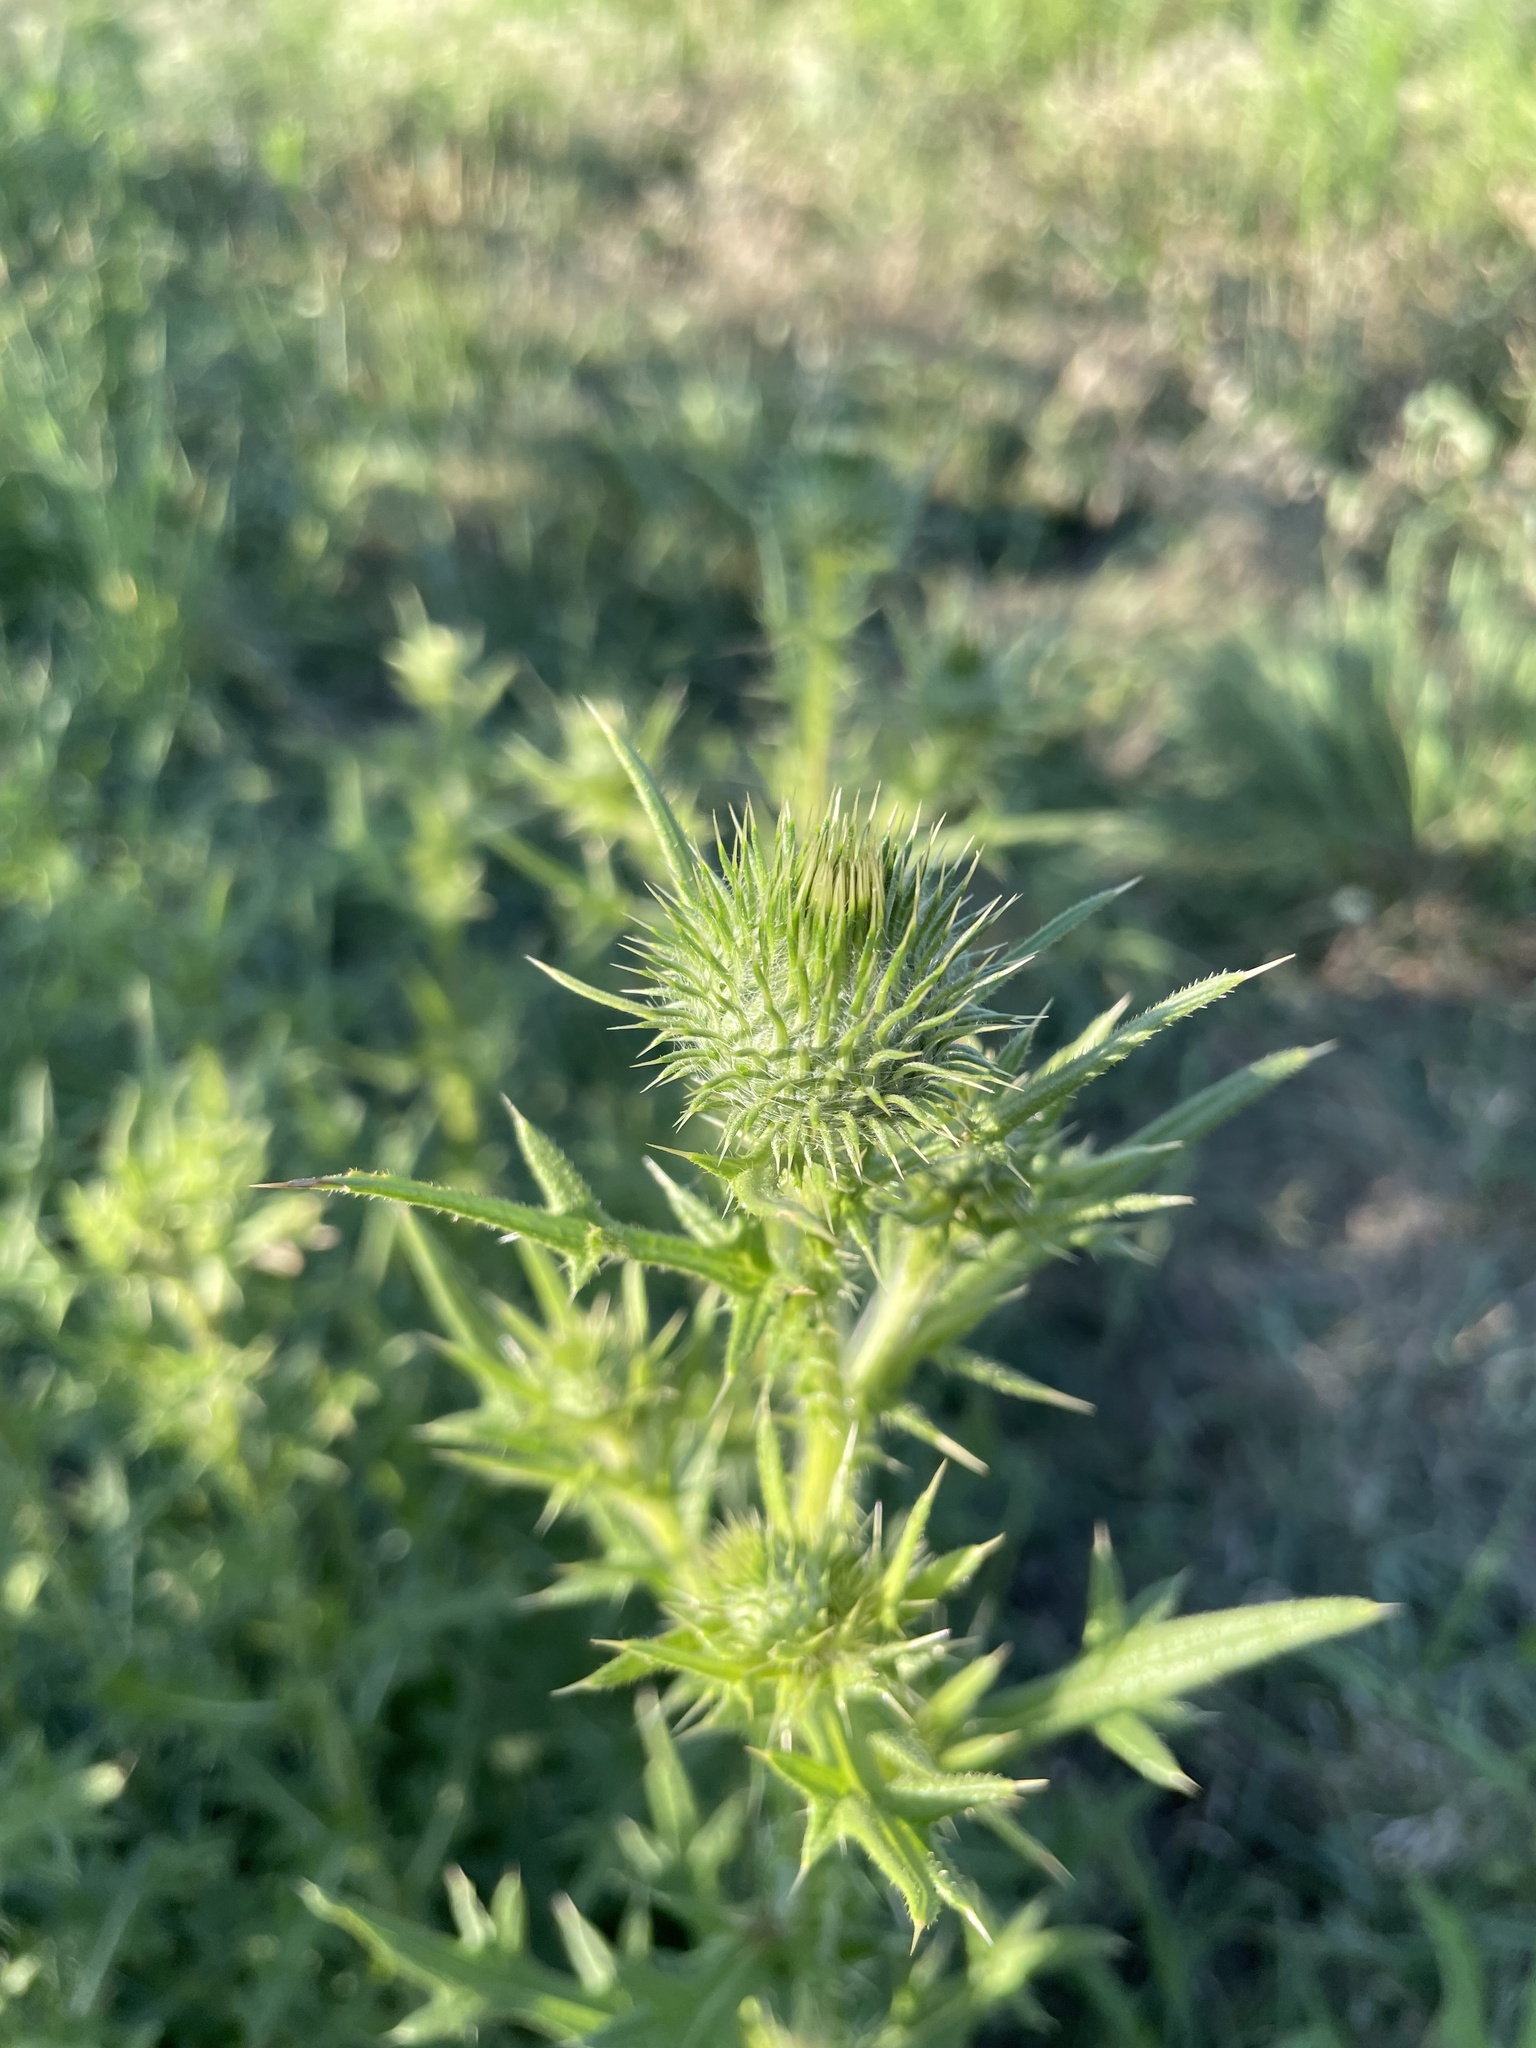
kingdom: Plantae
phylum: Tracheophyta
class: Magnoliopsida
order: Asterales
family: Asteraceae
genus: Cirsium
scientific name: Cirsium vulgare
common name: Bull thistle
